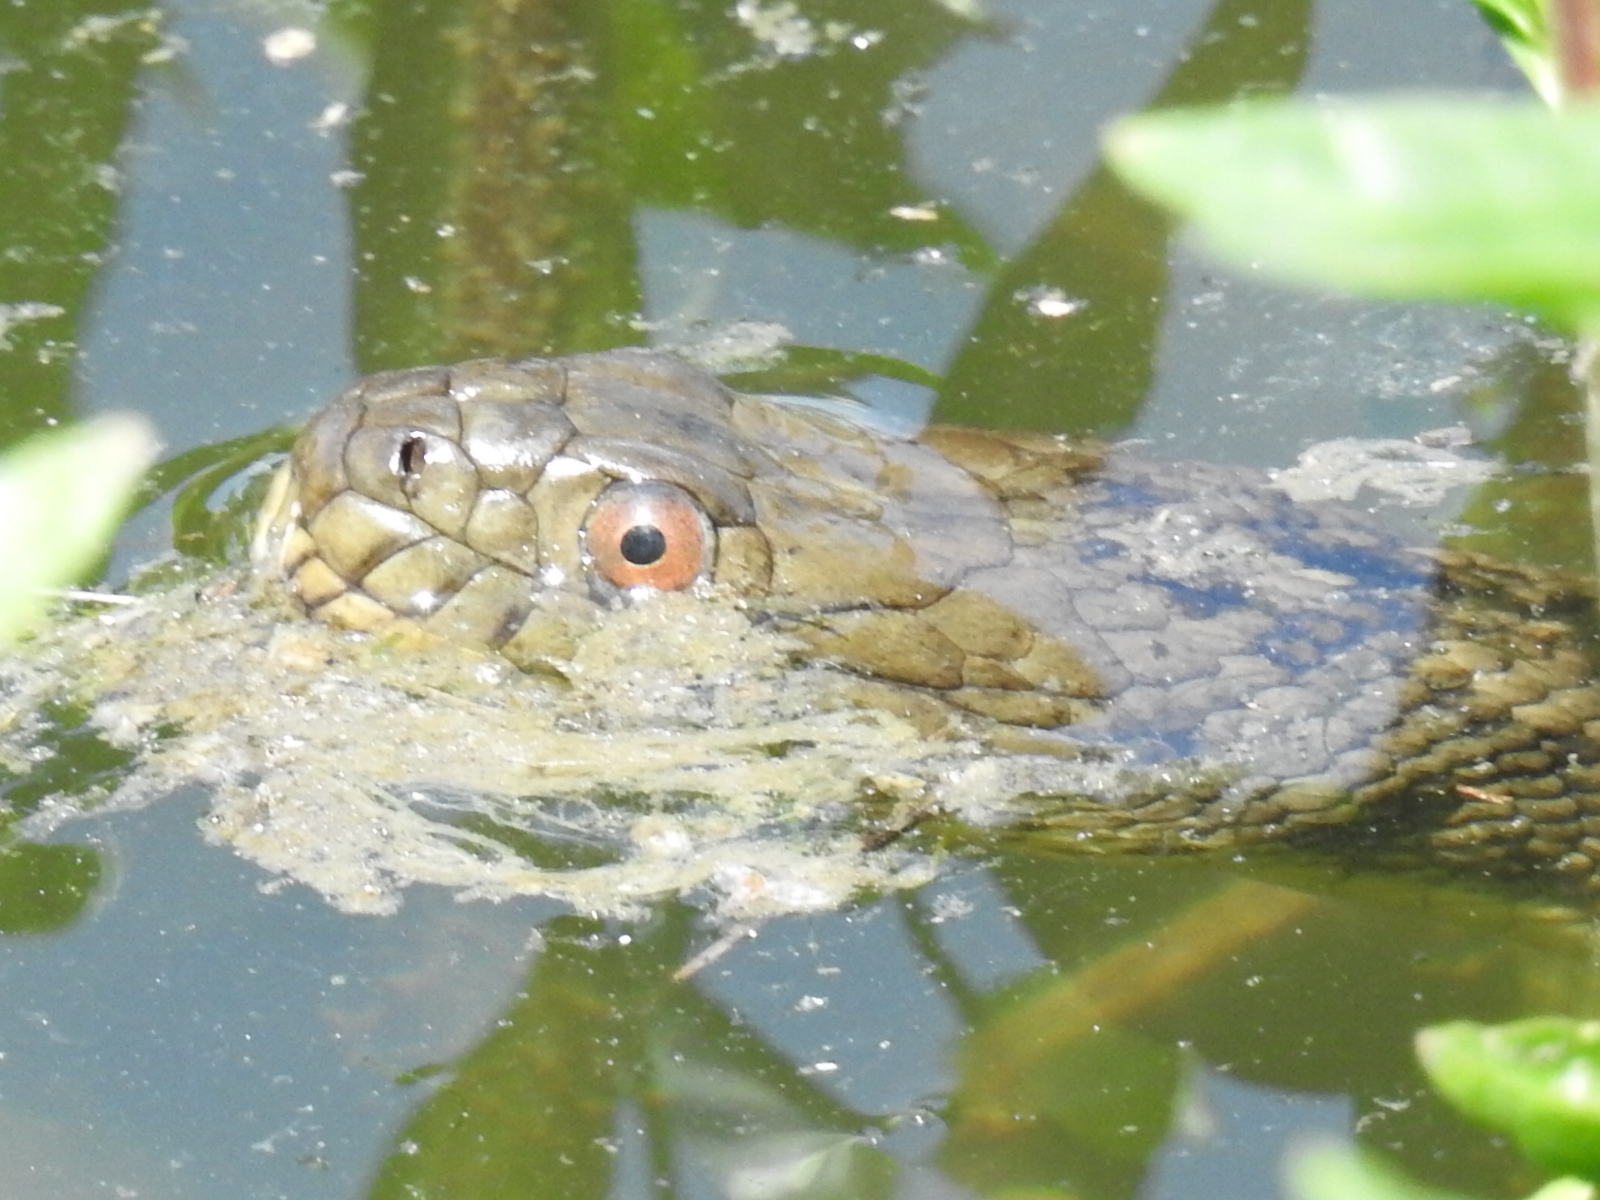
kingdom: Animalia
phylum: Chordata
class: Squamata
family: Colubridae
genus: Nerodia
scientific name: Nerodia rhombifer
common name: Diamondback water snake
